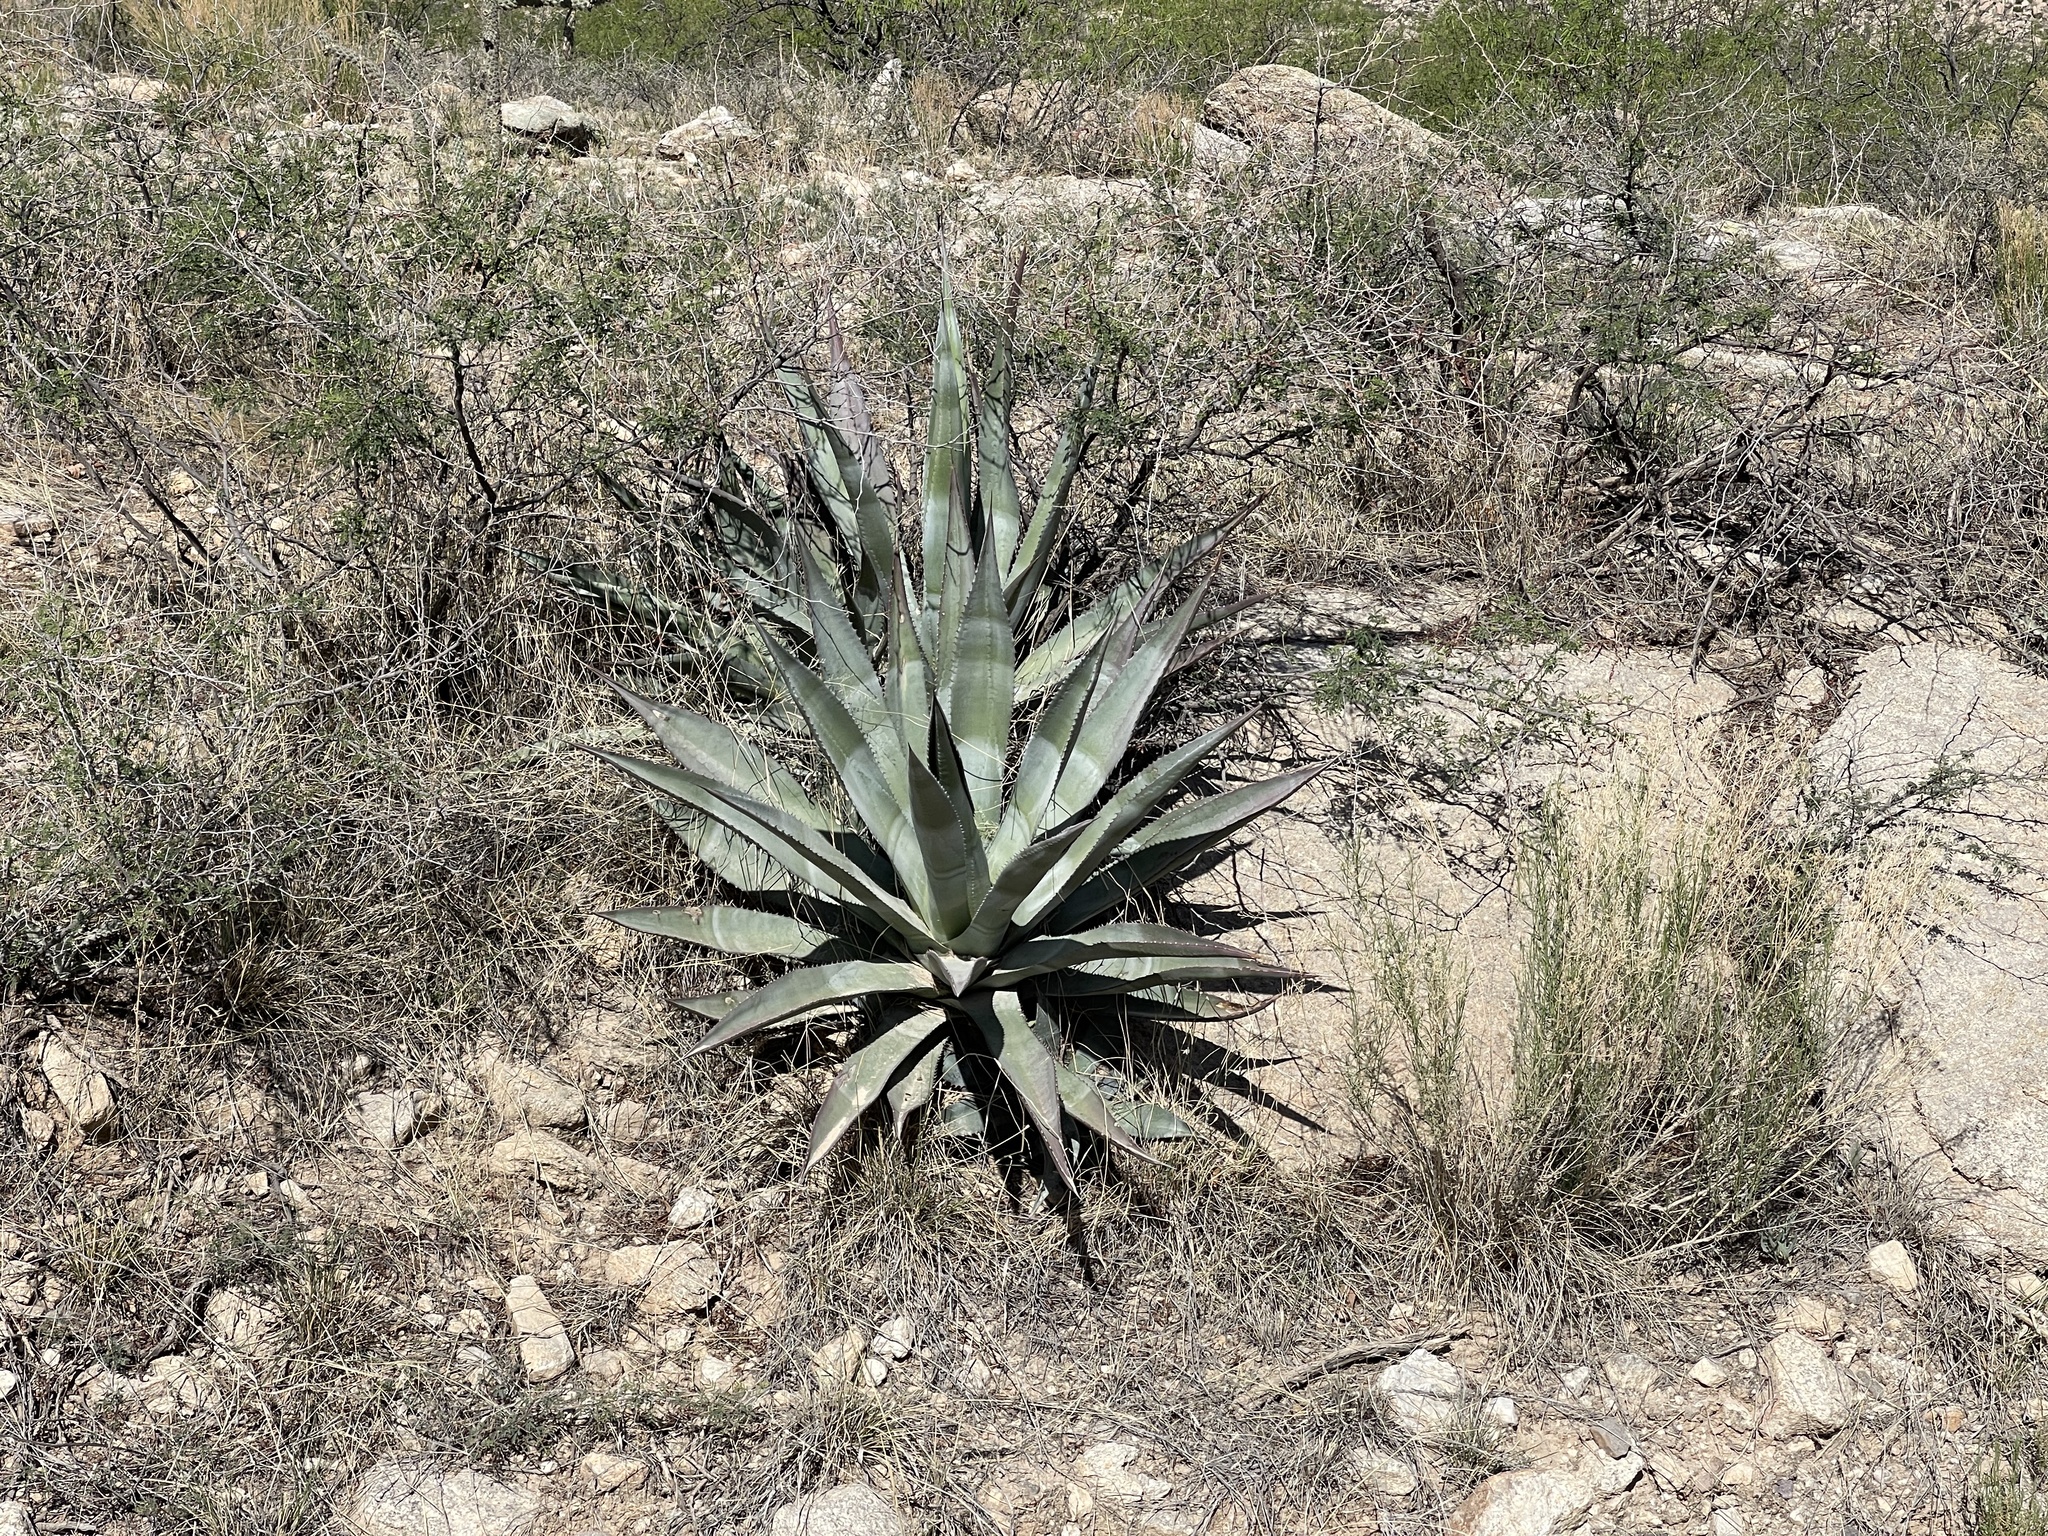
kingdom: Plantae
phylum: Tracheophyta
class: Liliopsida
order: Asparagales
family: Asparagaceae
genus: Agave
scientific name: Agave palmeri
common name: Palmer agave
